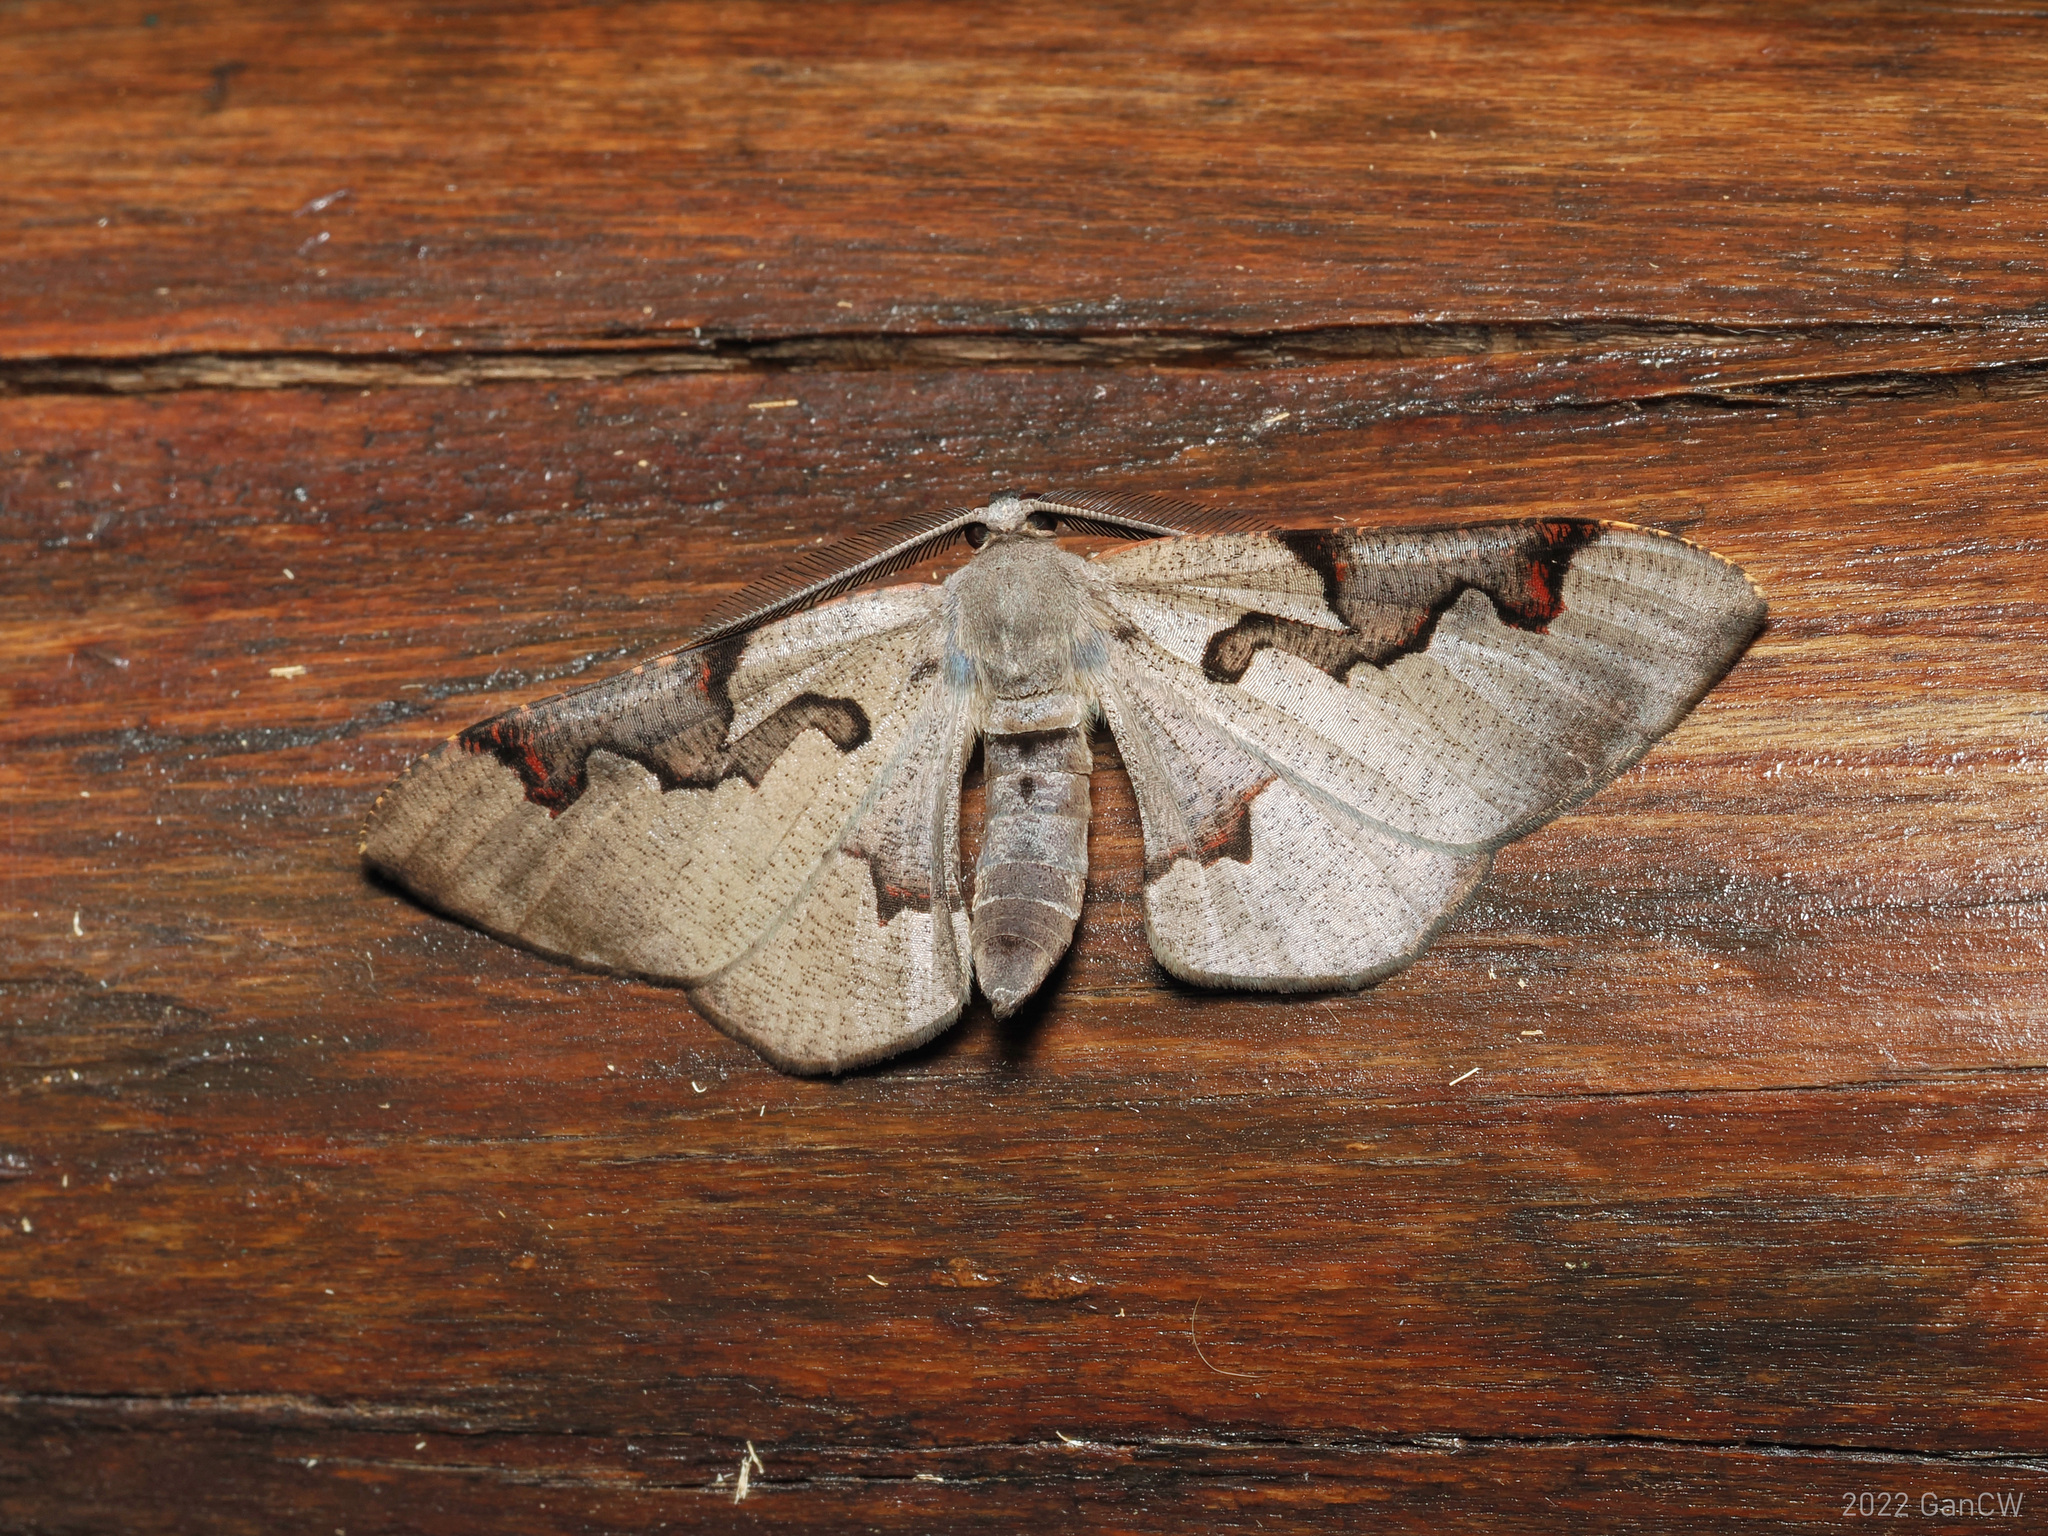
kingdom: Animalia
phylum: Arthropoda
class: Insecta
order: Lepidoptera
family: Geometridae
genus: Hypochrosis
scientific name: Hypochrosis pyrrhophaeata
